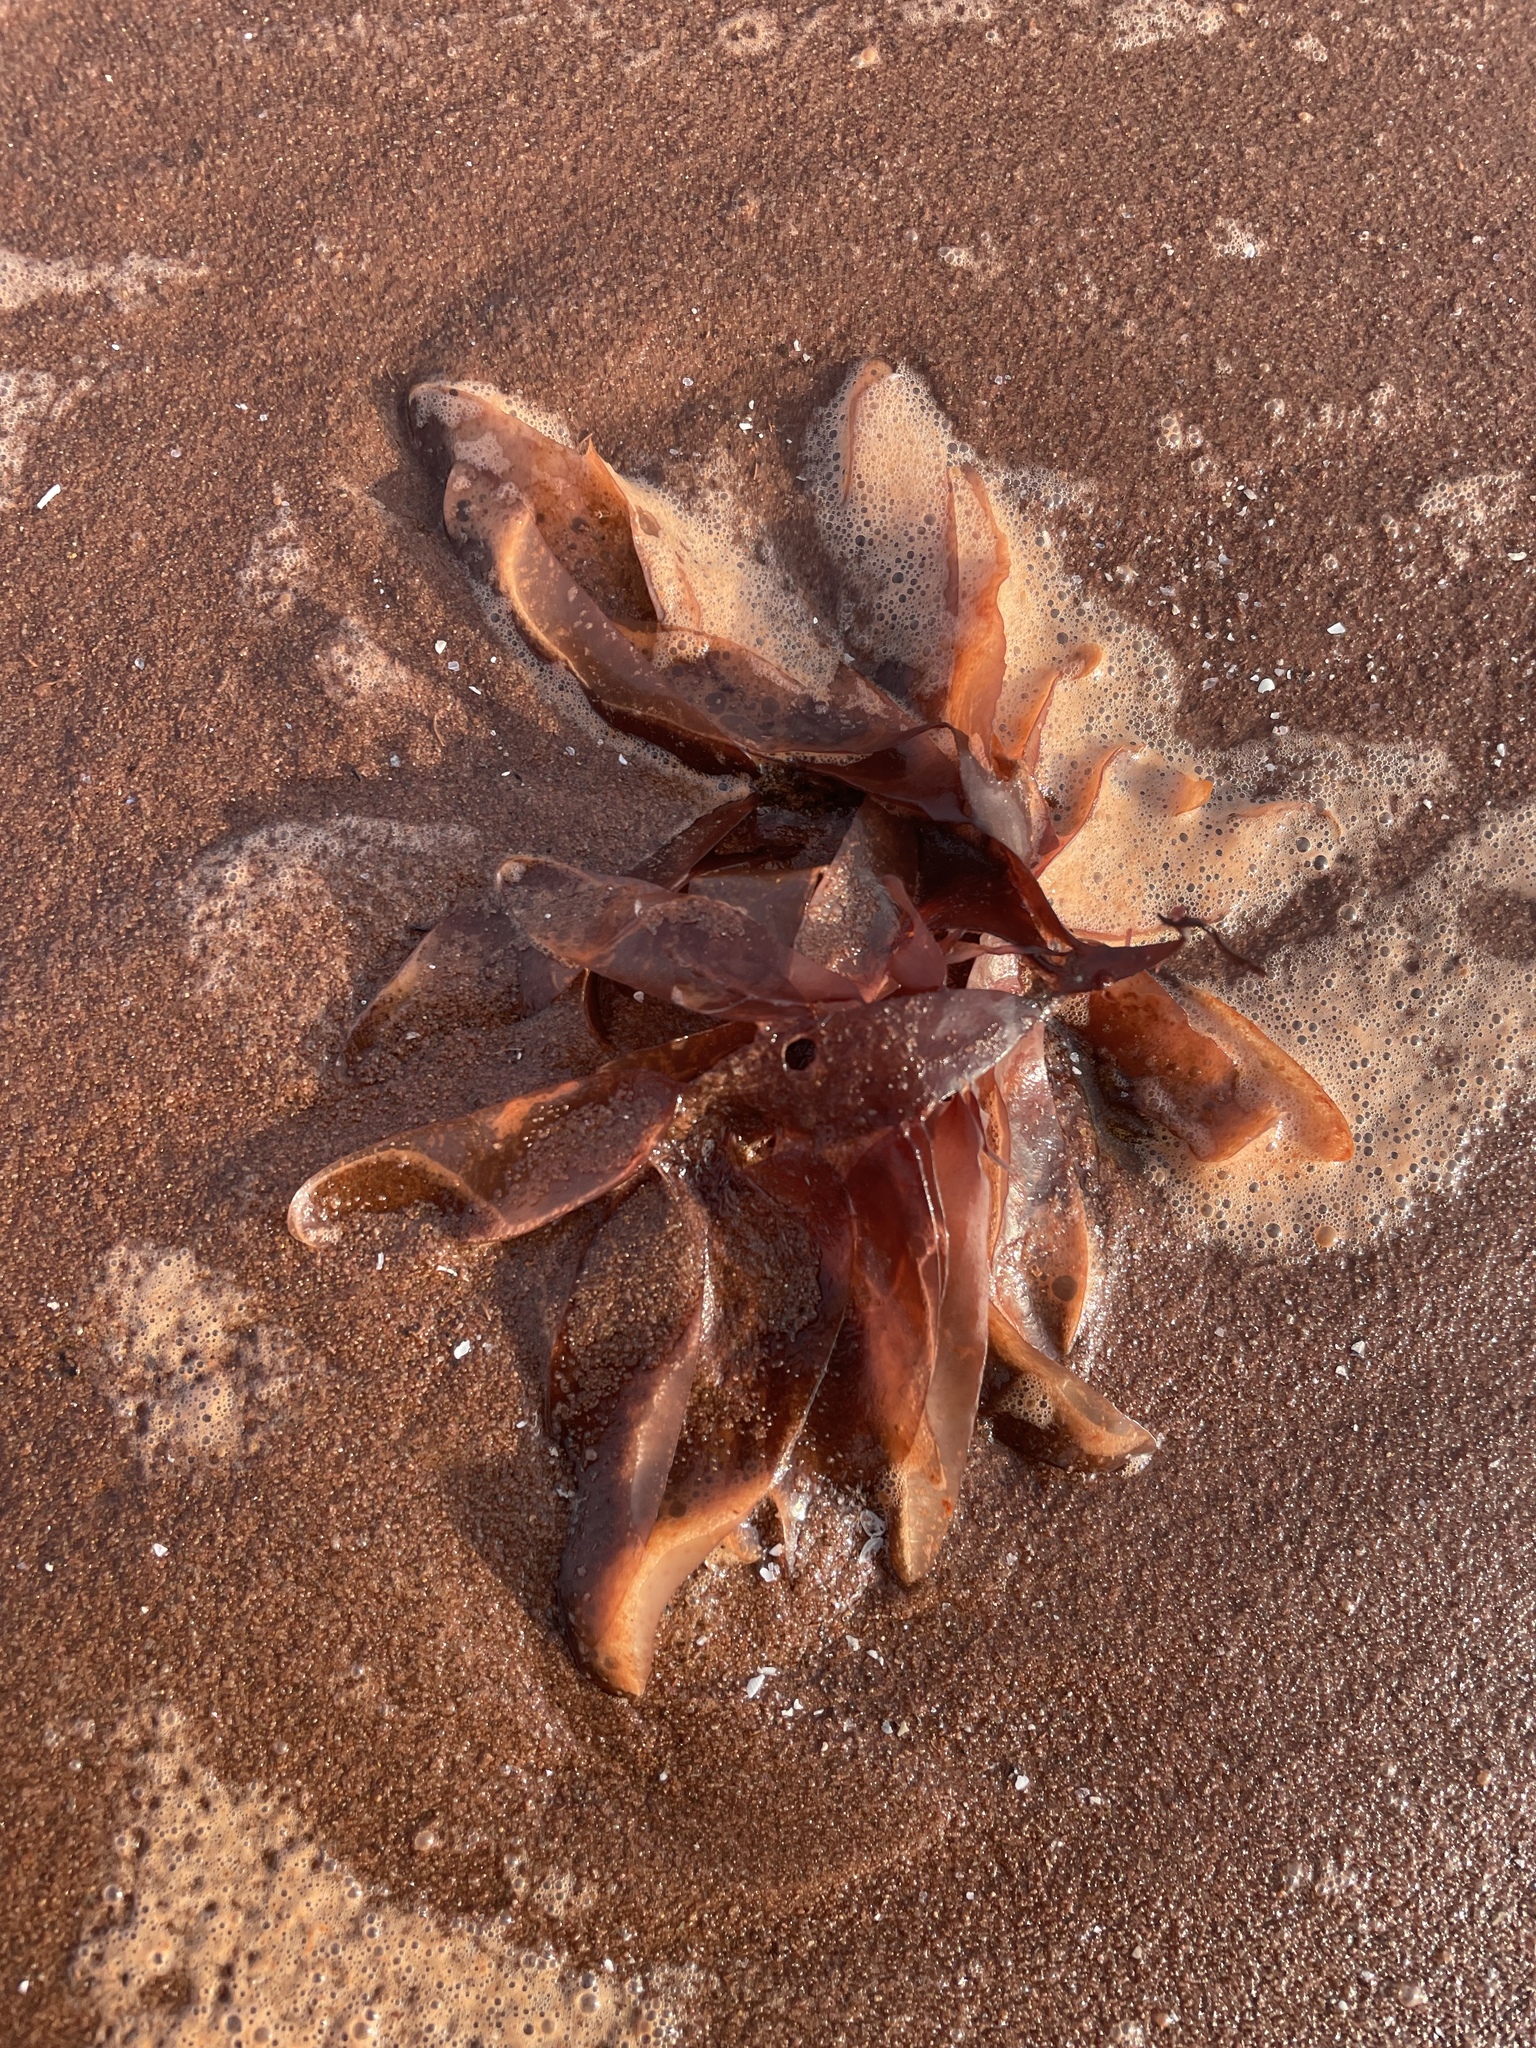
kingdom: Plantae
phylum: Rhodophyta
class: Florideophyceae
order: Palmariales
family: Palmariaceae
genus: Palmaria
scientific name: Palmaria palmata
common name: Dulse
